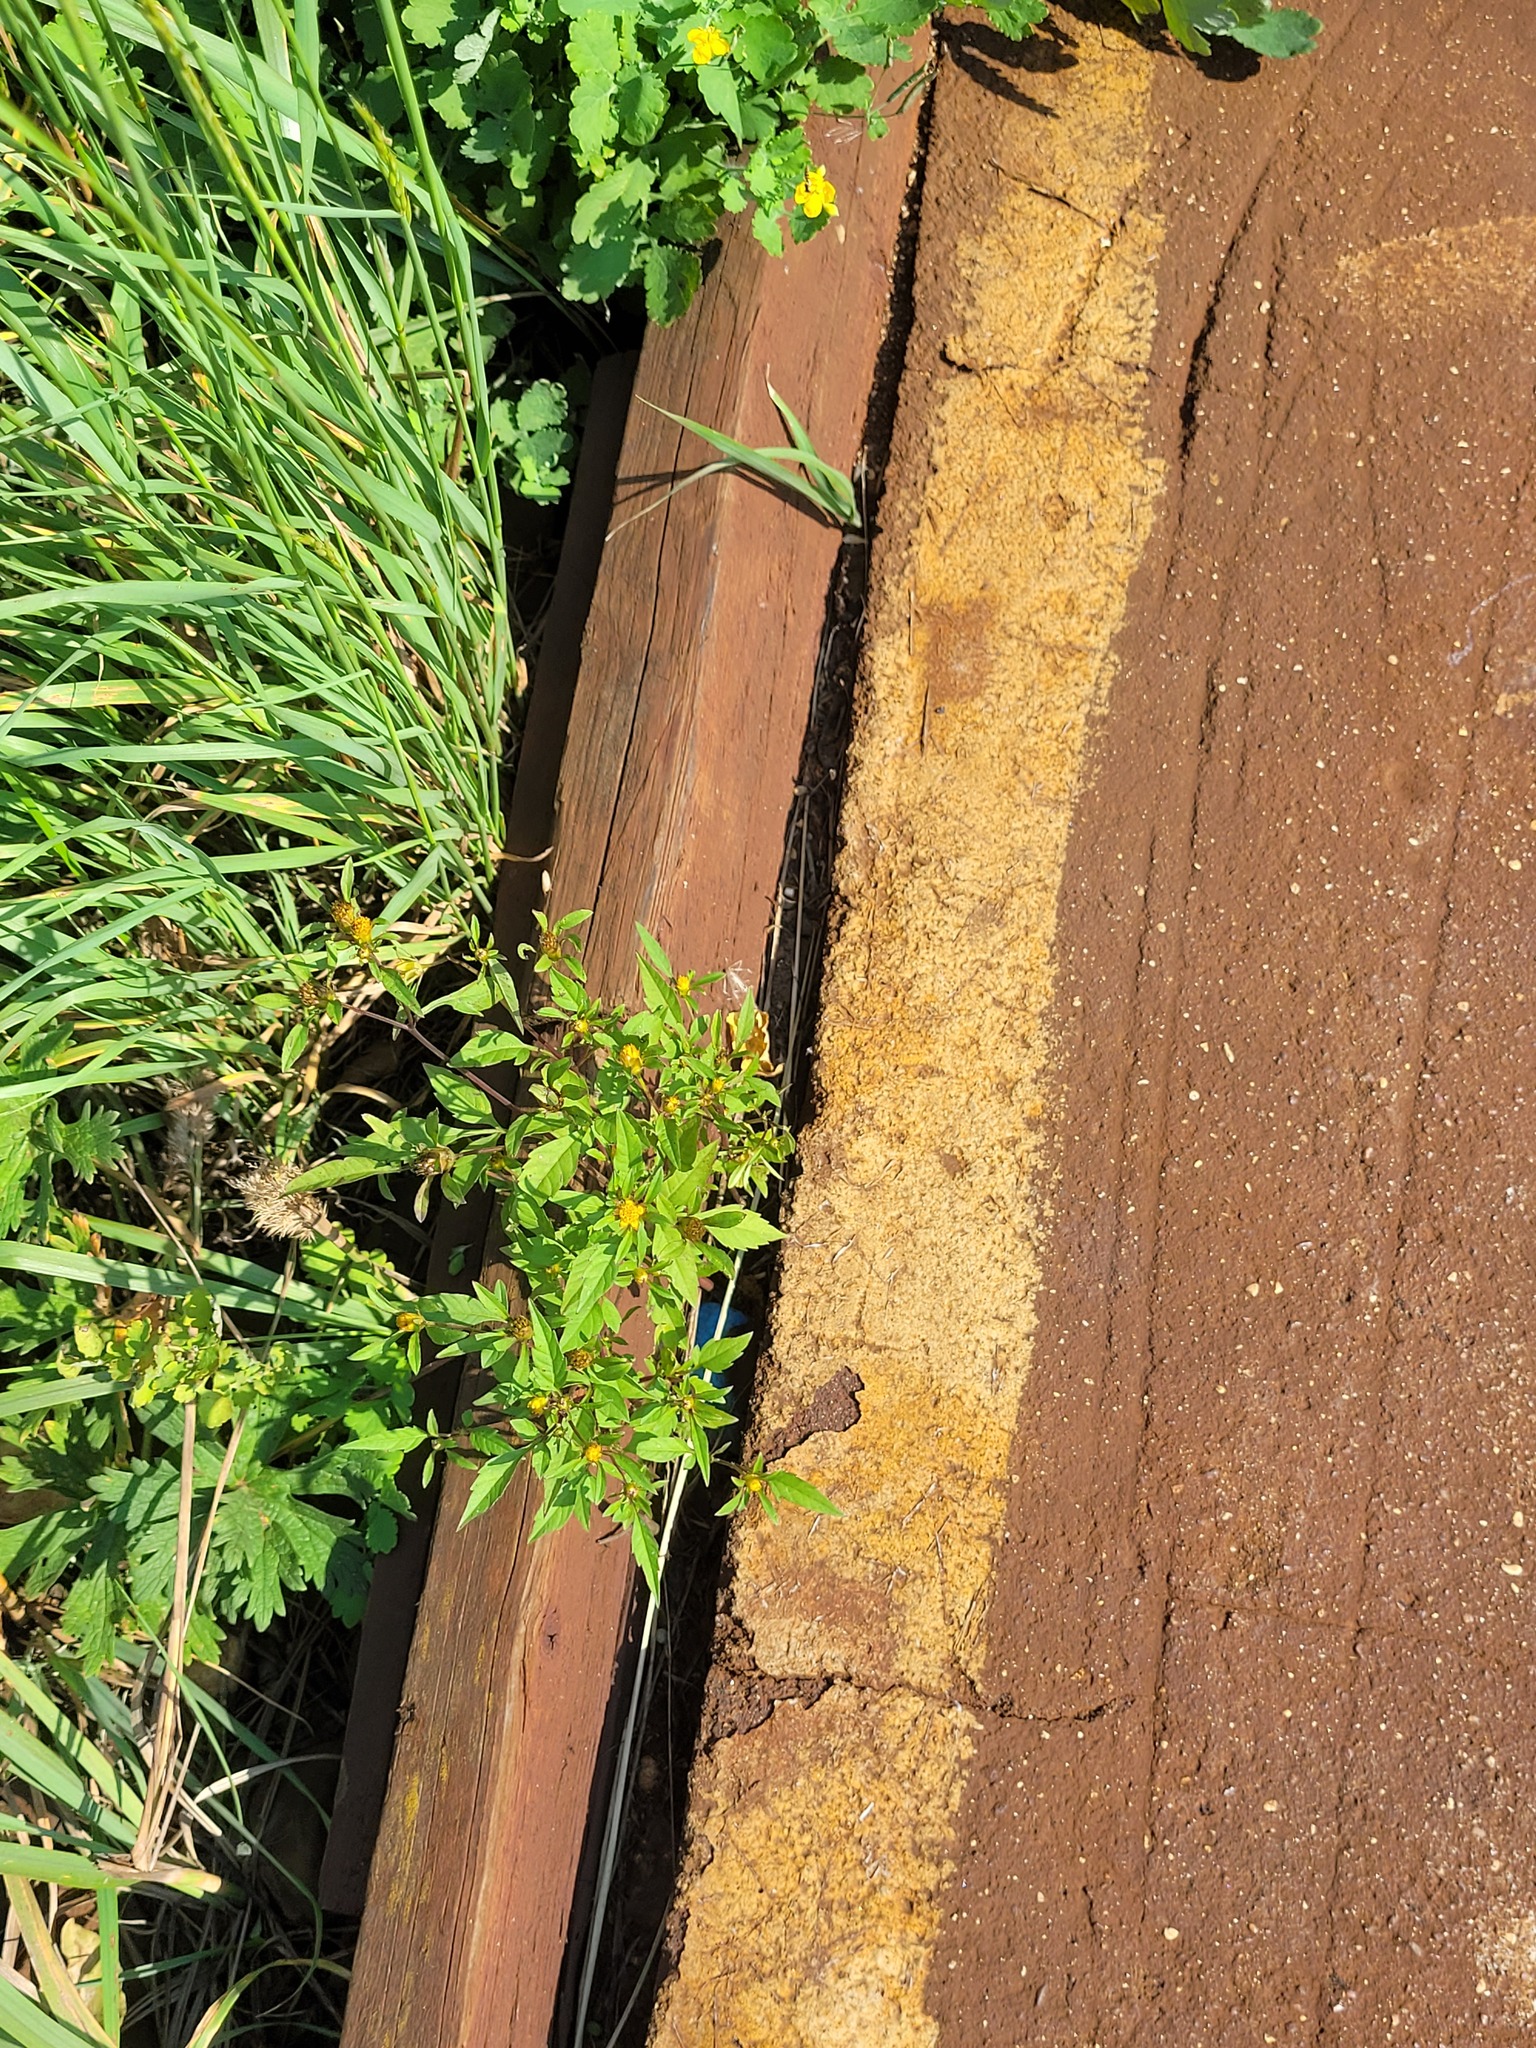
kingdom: Plantae
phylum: Tracheophyta
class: Magnoliopsida
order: Asterales
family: Asteraceae
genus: Bidens
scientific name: Bidens frondosa
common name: Beggarticks
